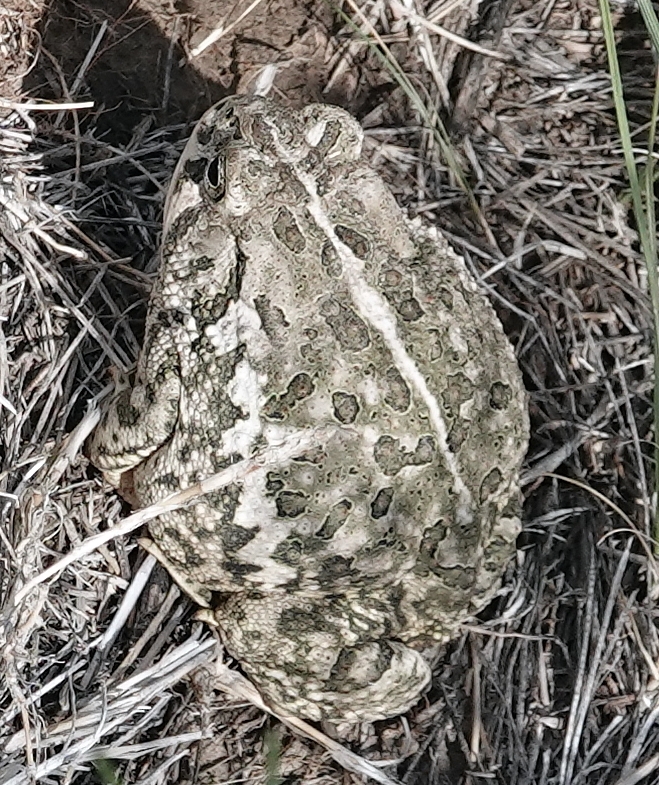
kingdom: Animalia
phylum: Chordata
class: Amphibia
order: Anura
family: Bufonidae
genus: Anaxyrus
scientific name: Anaxyrus woodhousii
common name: Woodhouse's toad
